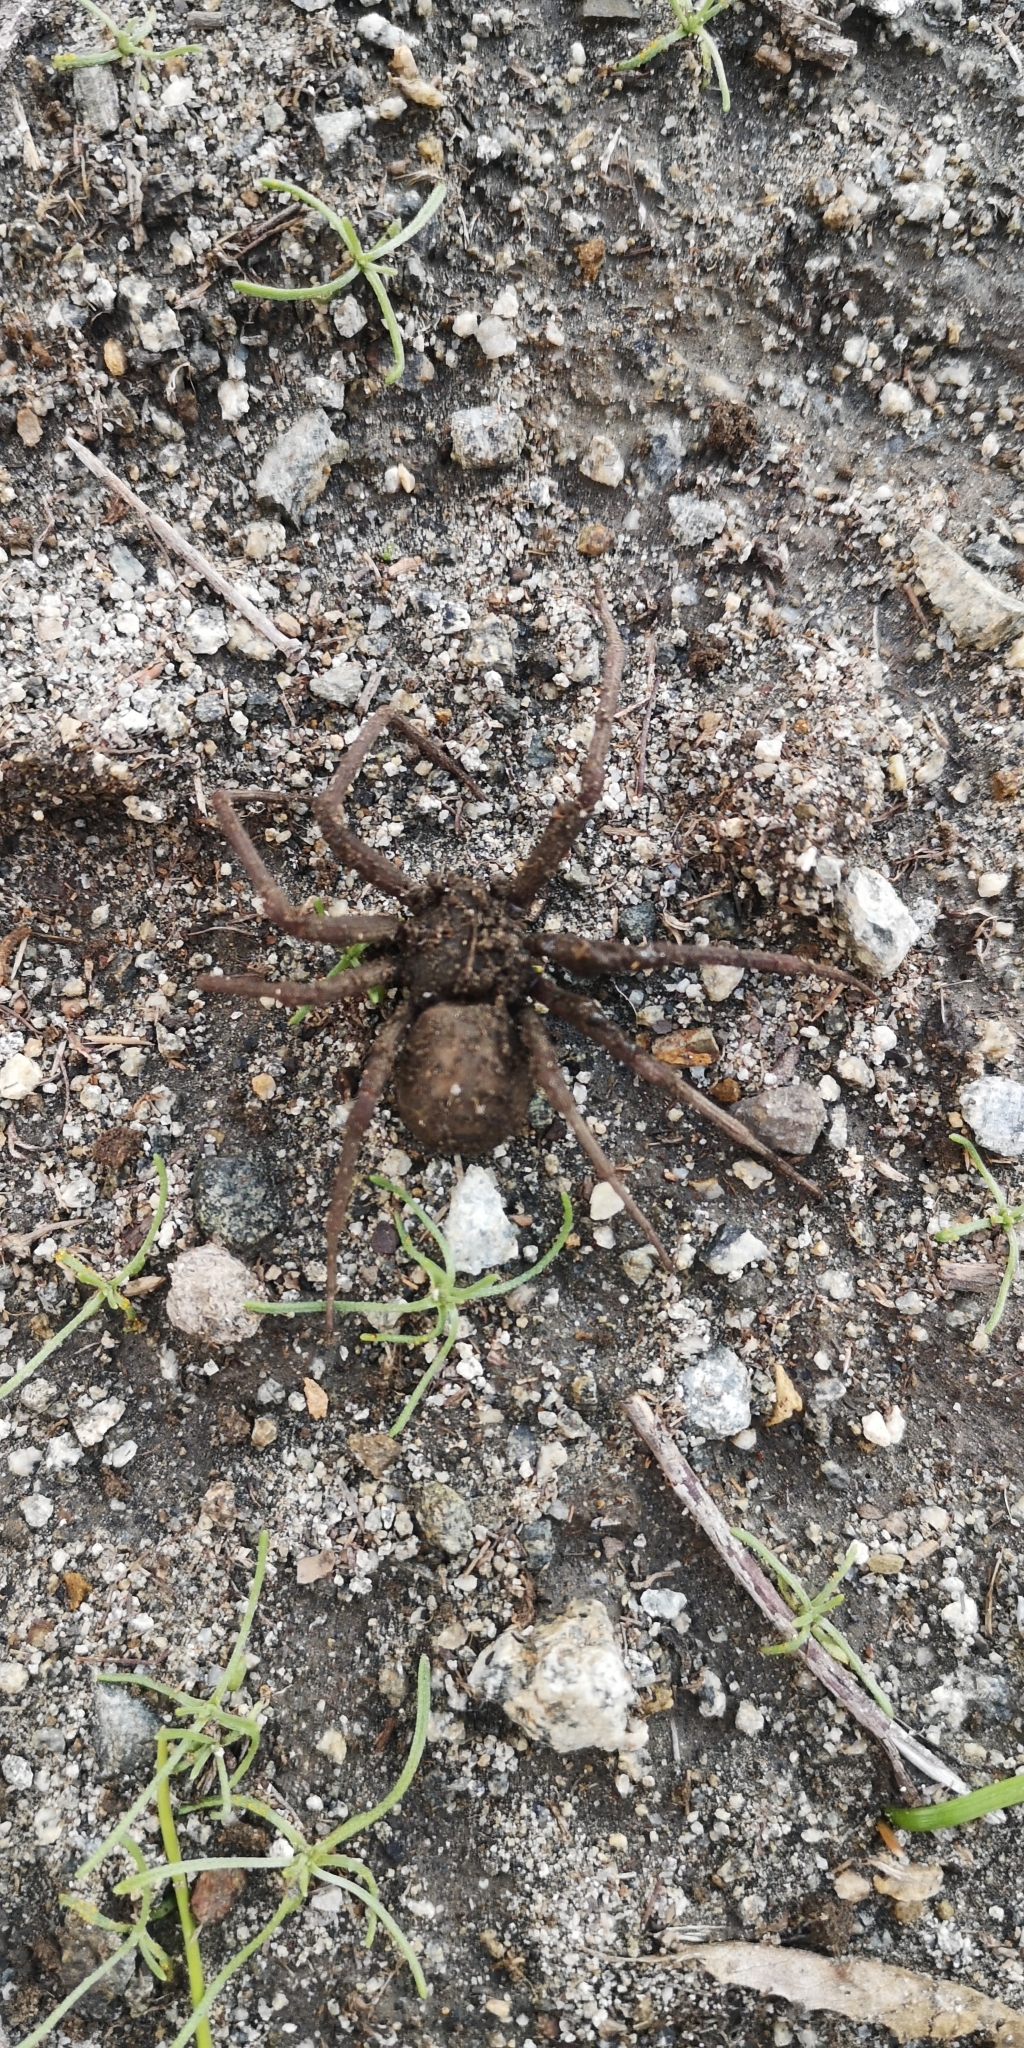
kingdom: Animalia
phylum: Arthropoda
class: Arachnida
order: Araneae
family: Sicariidae
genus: Sicarius
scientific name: Sicarius thomisoides
